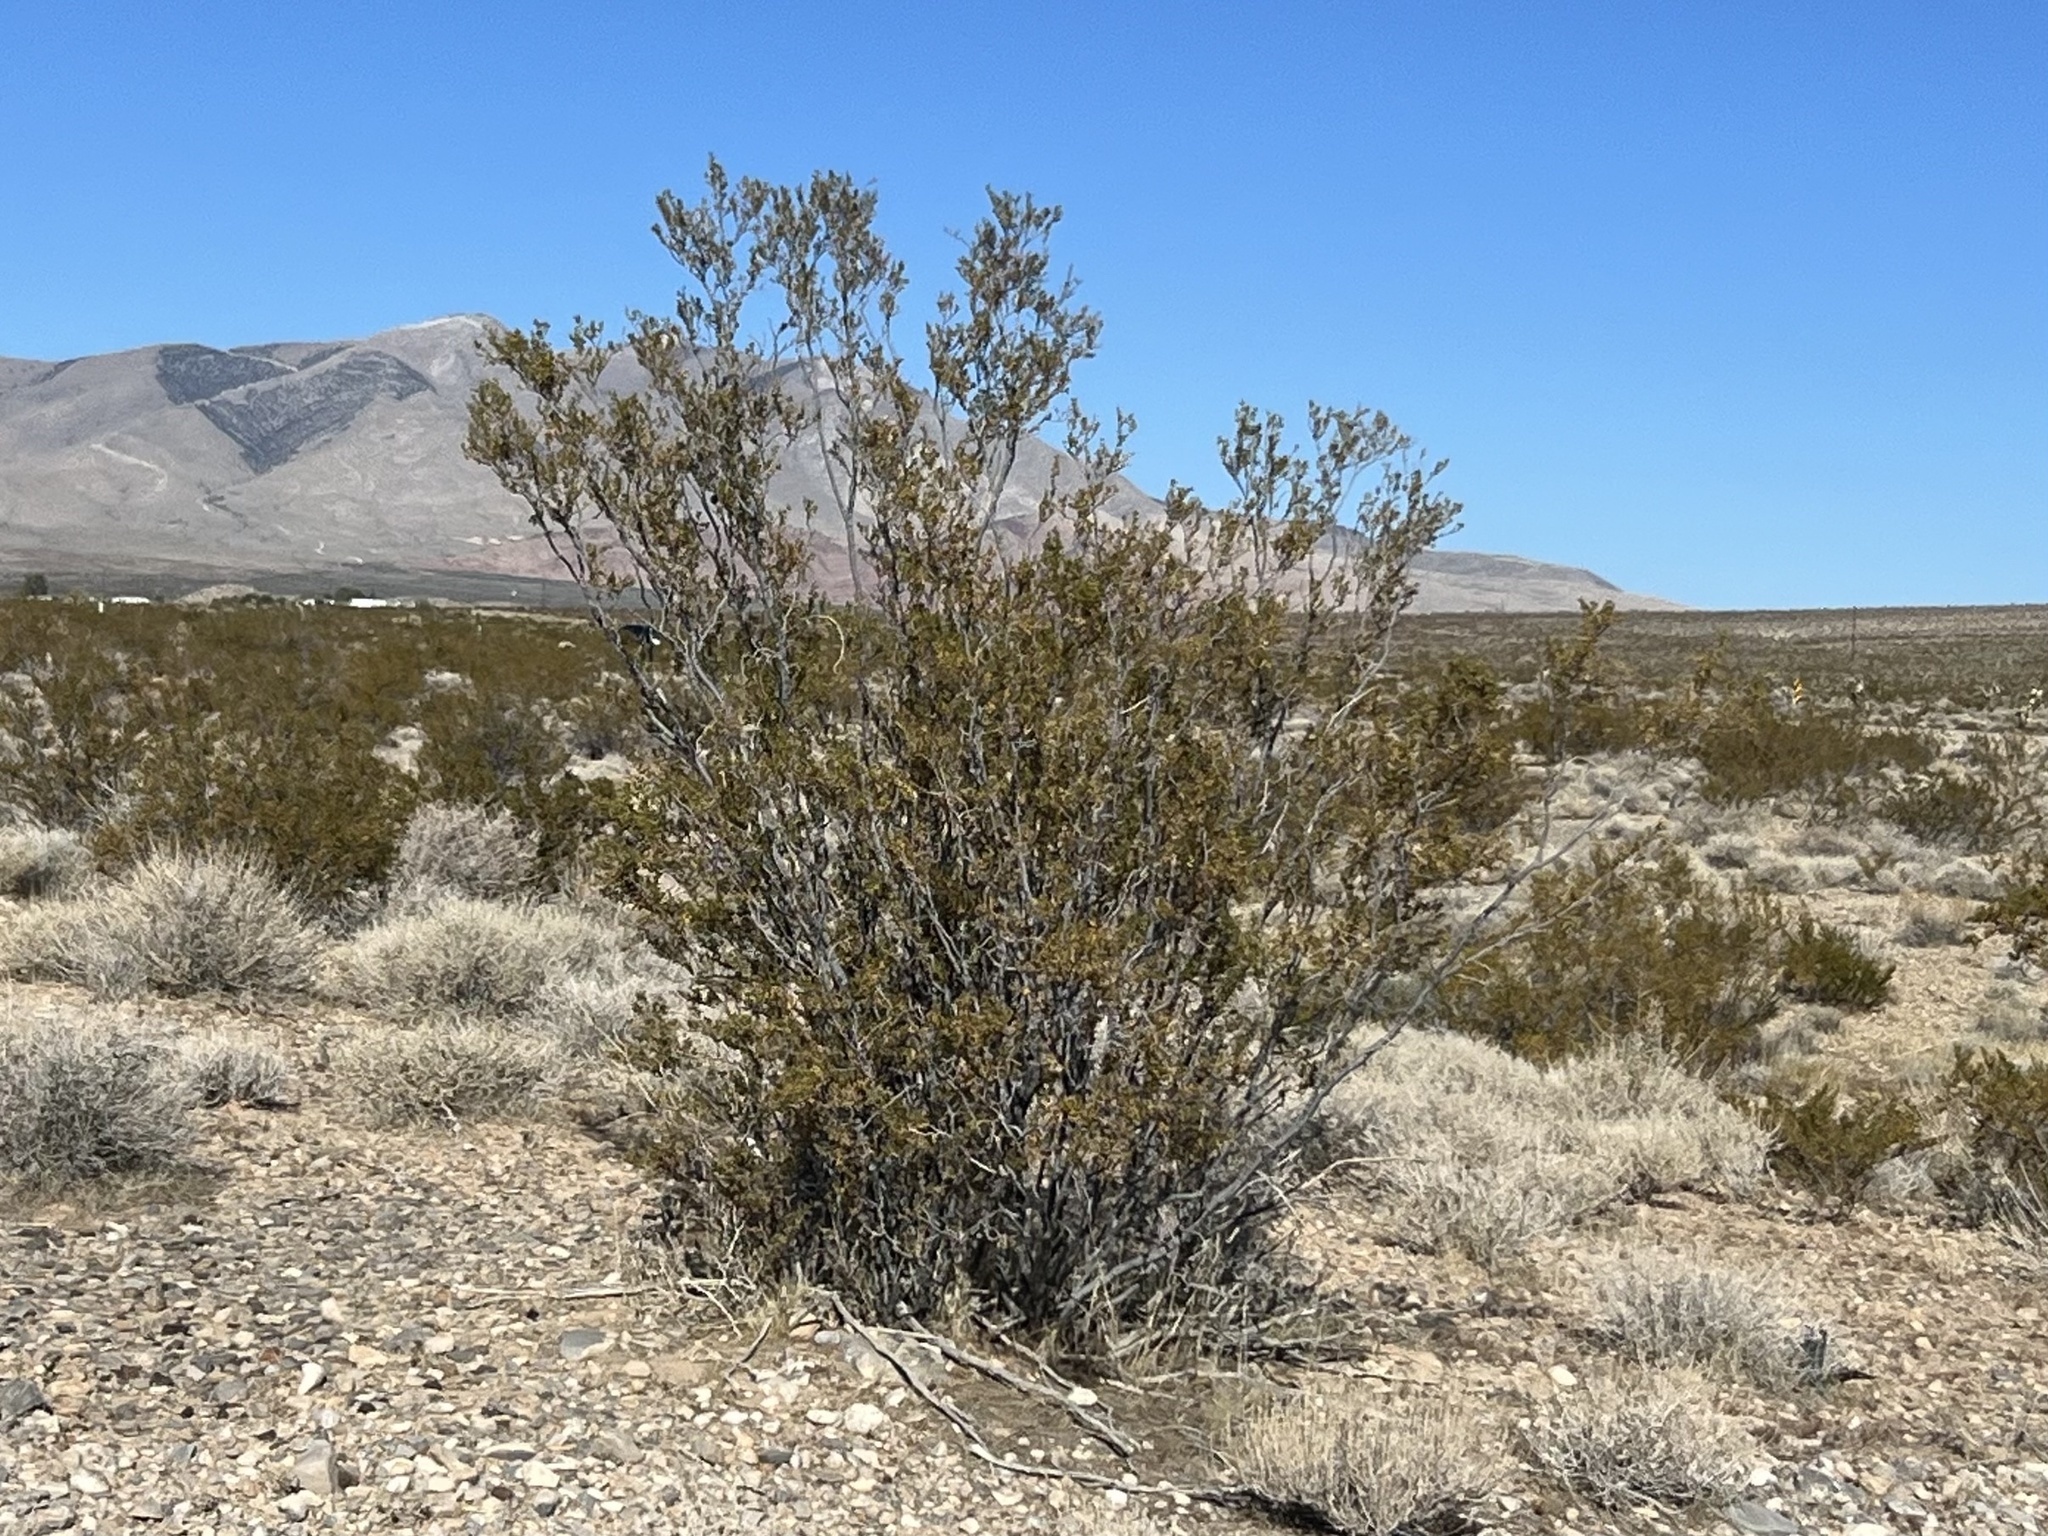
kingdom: Plantae
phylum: Tracheophyta
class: Magnoliopsida
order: Zygophyllales
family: Zygophyllaceae
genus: Larrea
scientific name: Larrea tridentata
